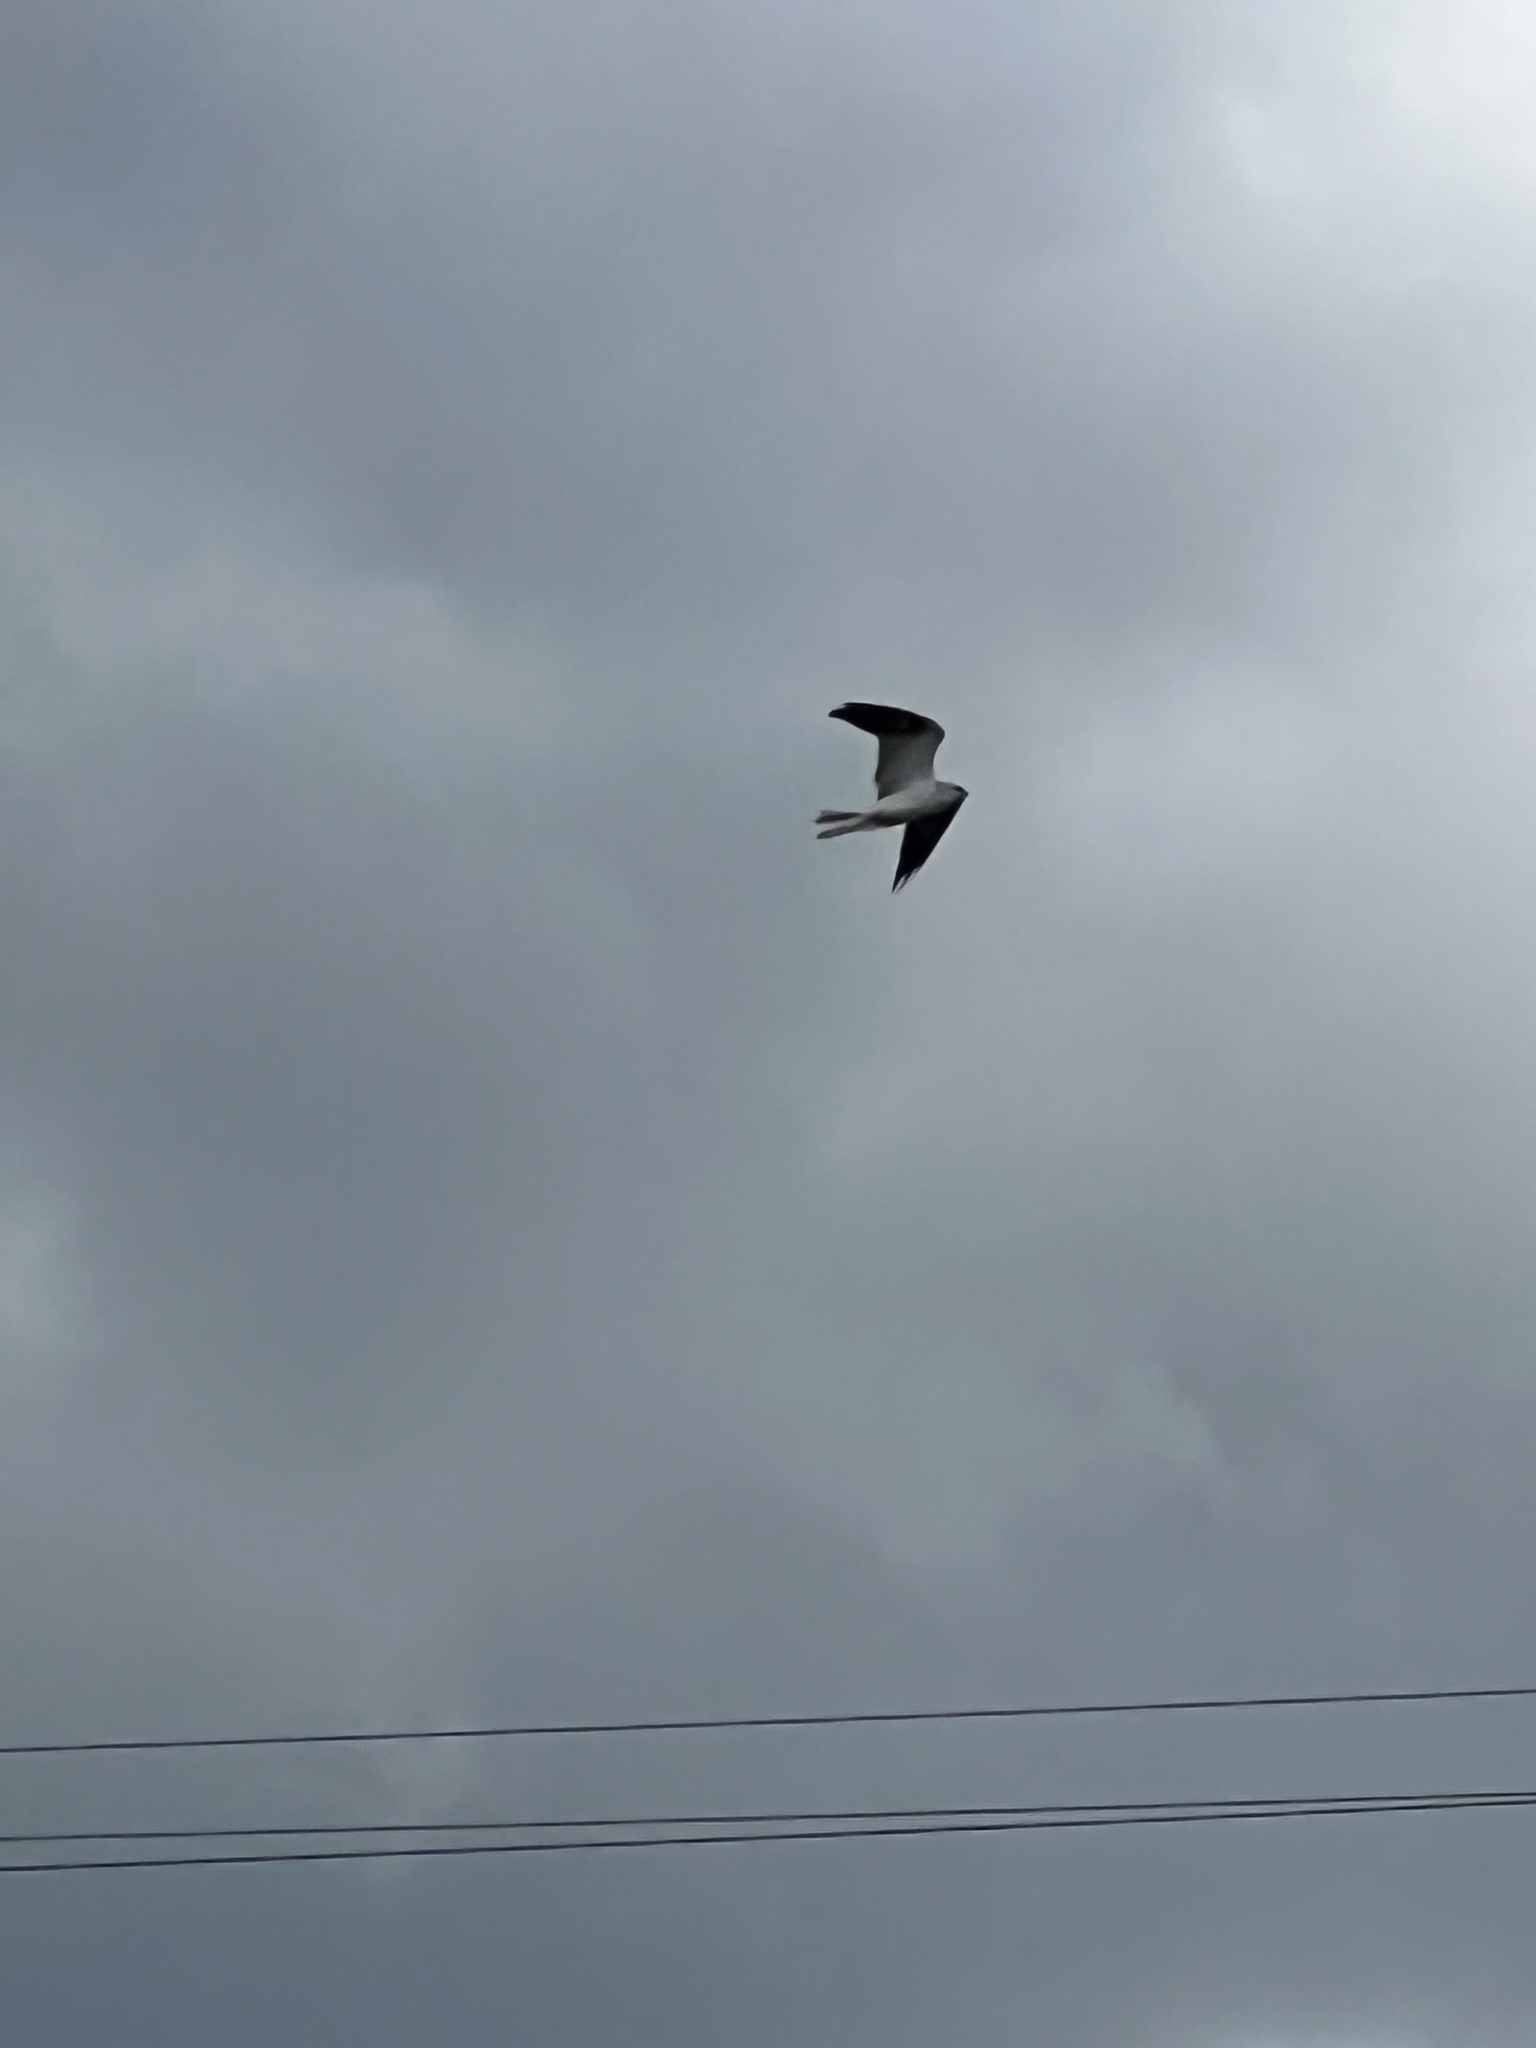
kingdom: Animalia
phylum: Chordata
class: Aves
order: Accipitriformes
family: Accipitridae
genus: Elanus
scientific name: Elanus leucurus
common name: White-tailed kite
